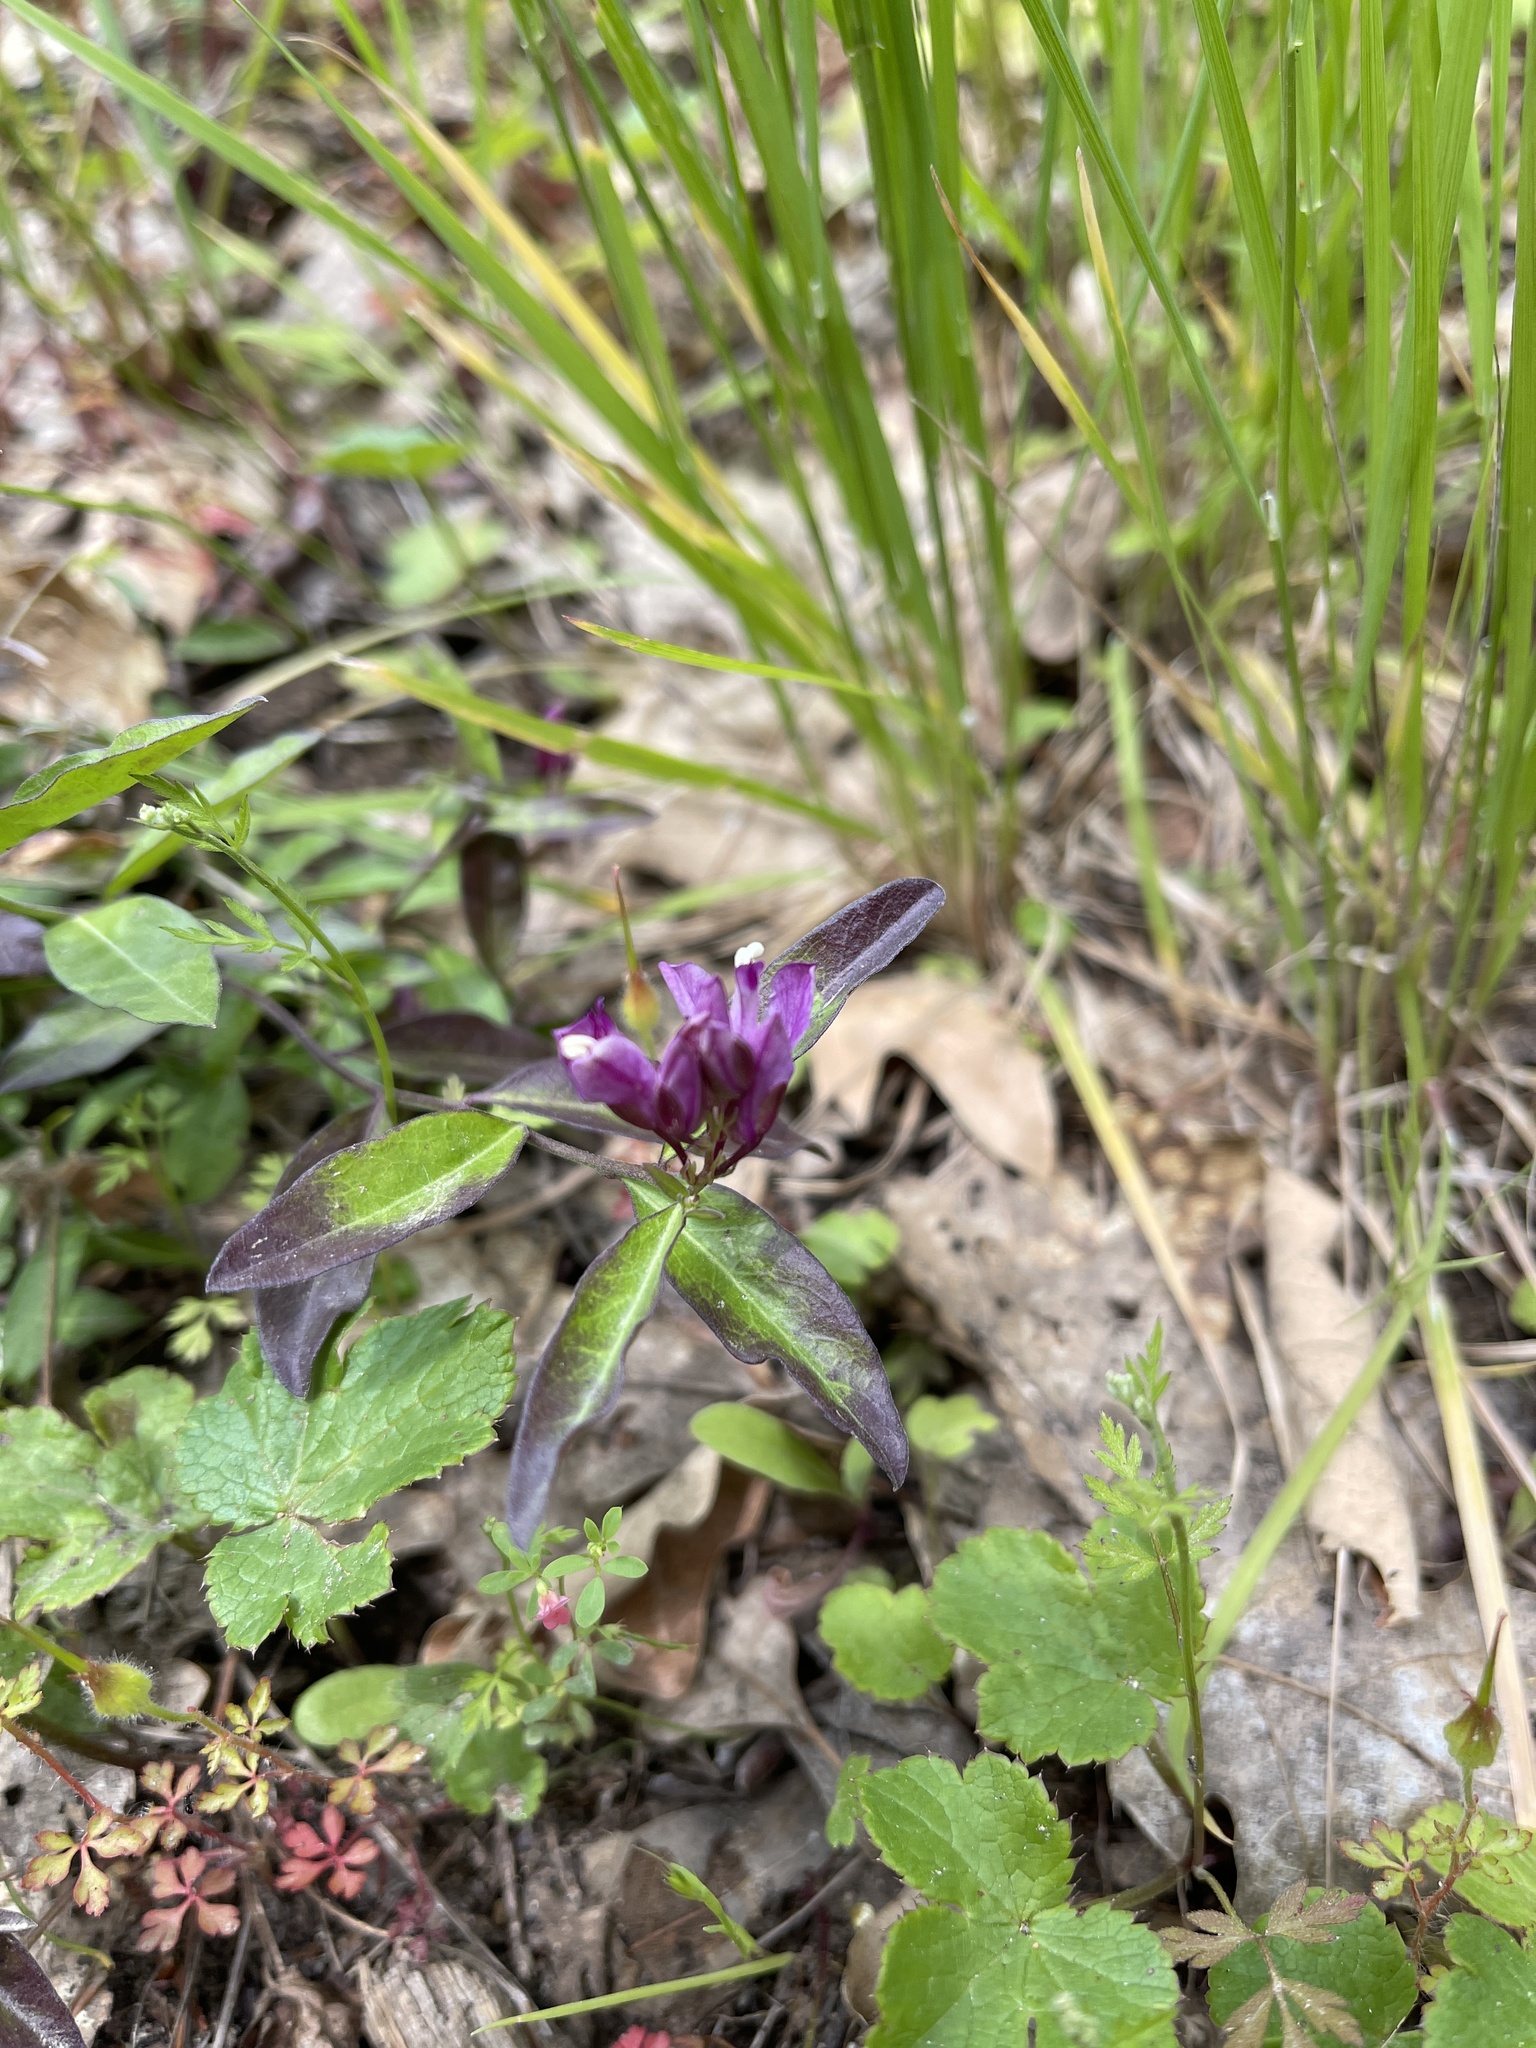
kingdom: Plantae
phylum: Tracheophyta
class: Magnoliopsida
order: Fabales
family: Polygalaceae
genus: Rhinotropis
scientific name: Rhinotropis californica
